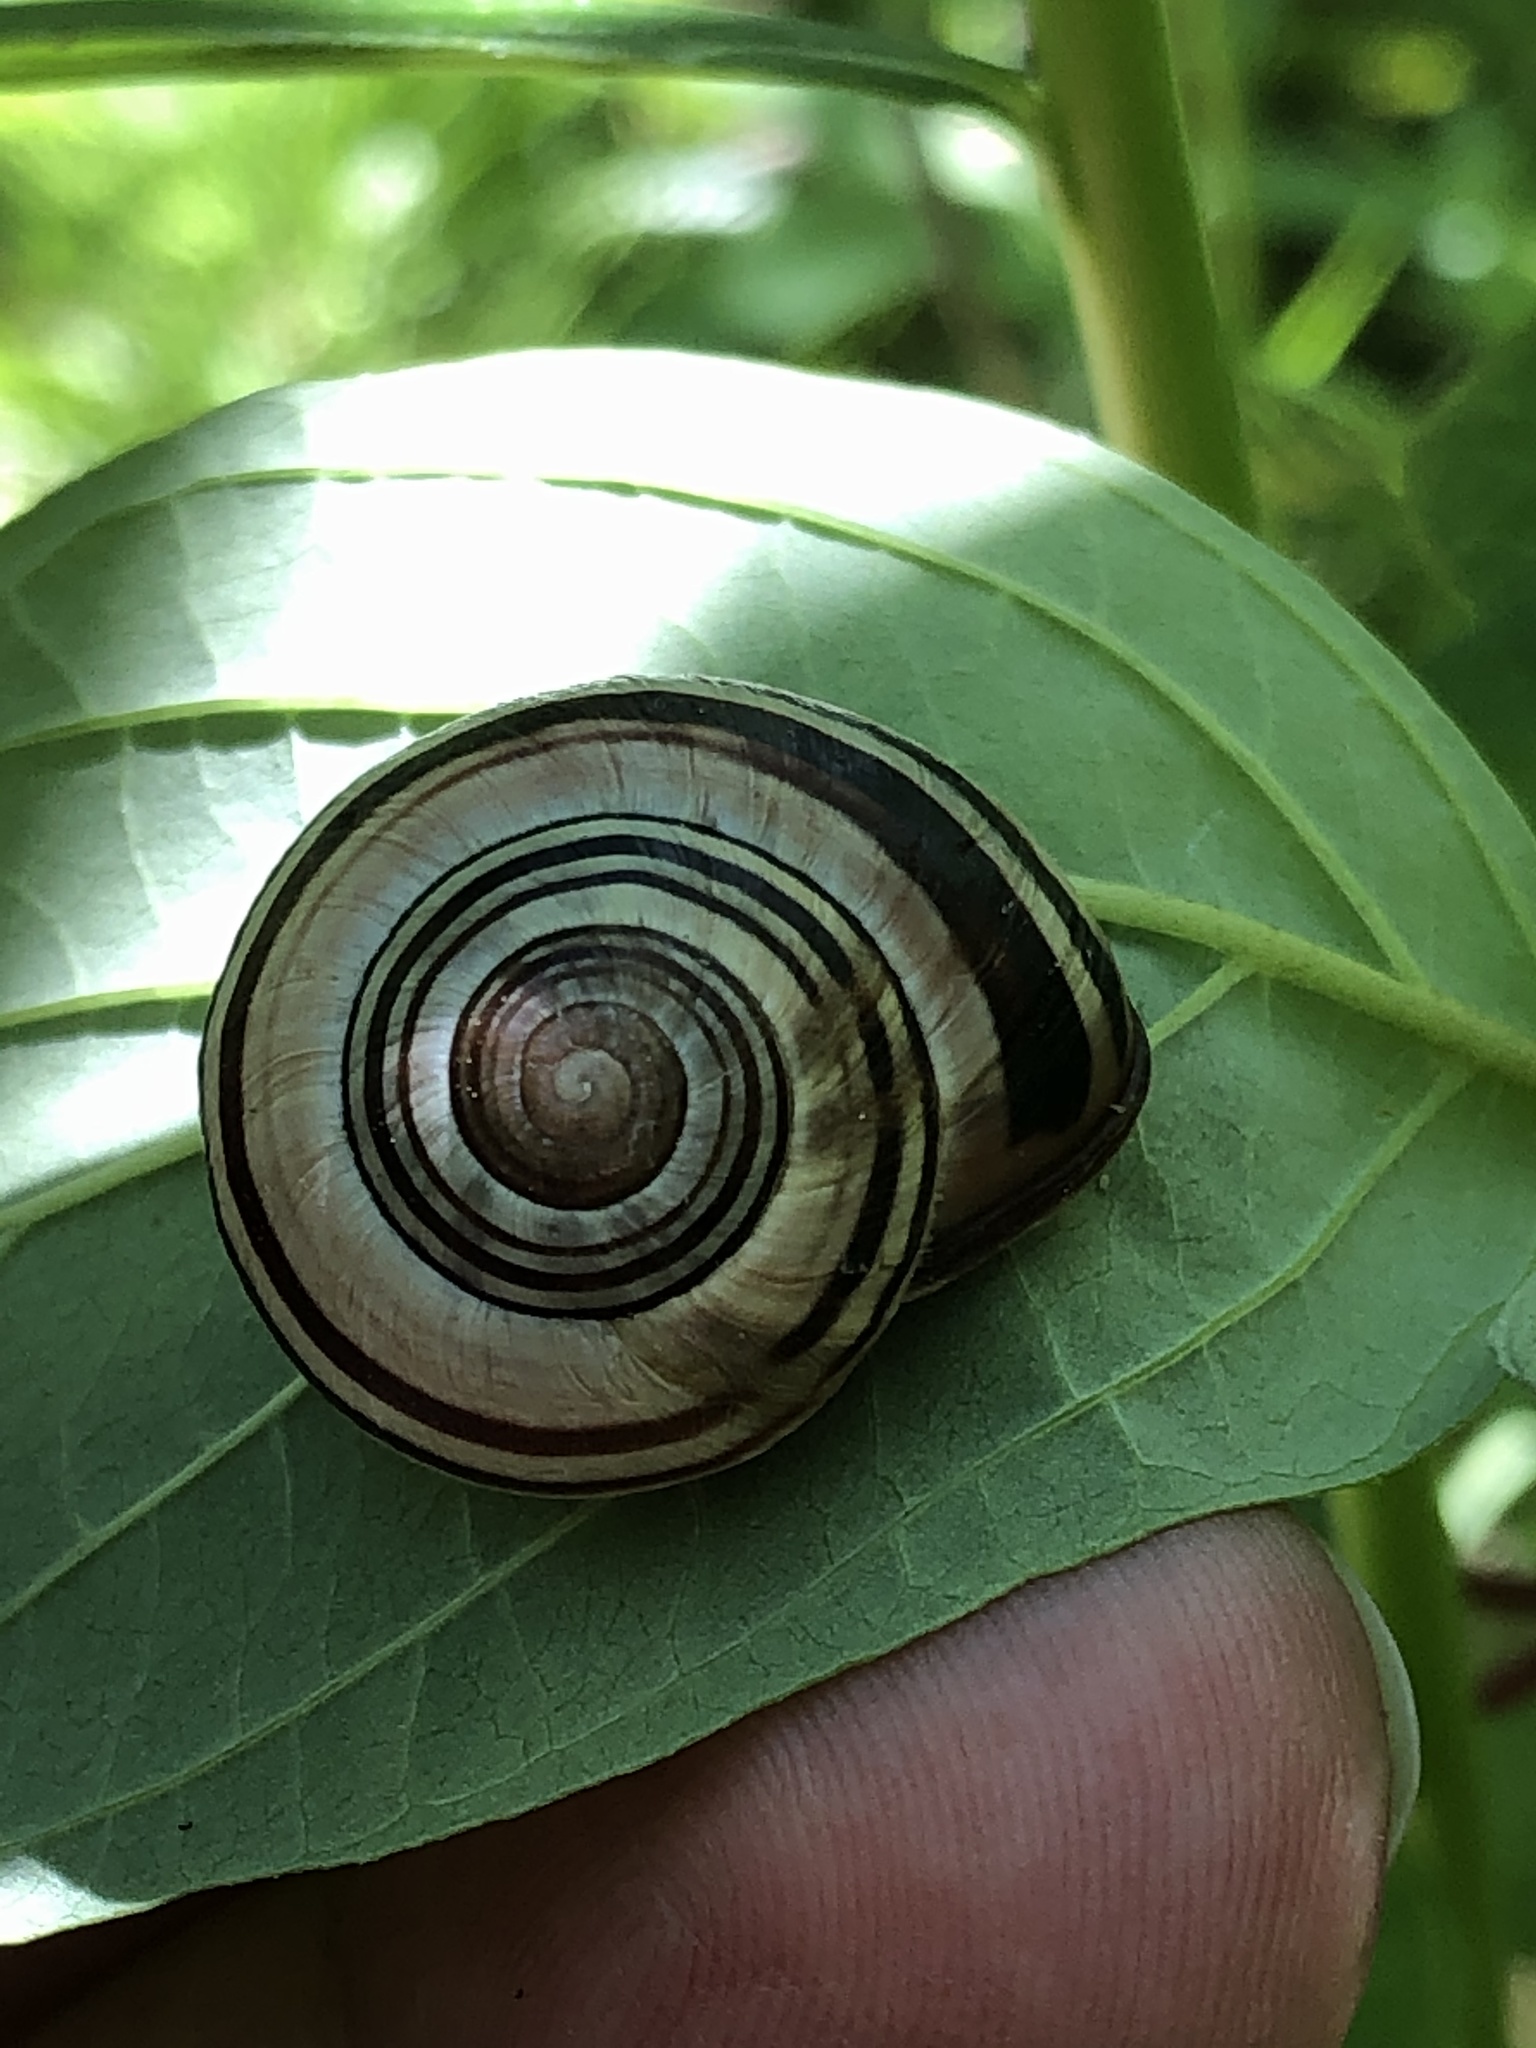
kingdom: Animalia
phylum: Mollusca
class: Gastropoda
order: Stylommatophora
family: Helicidae
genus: Cepaea
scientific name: Cepaea nemoralis
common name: Grovesnail
